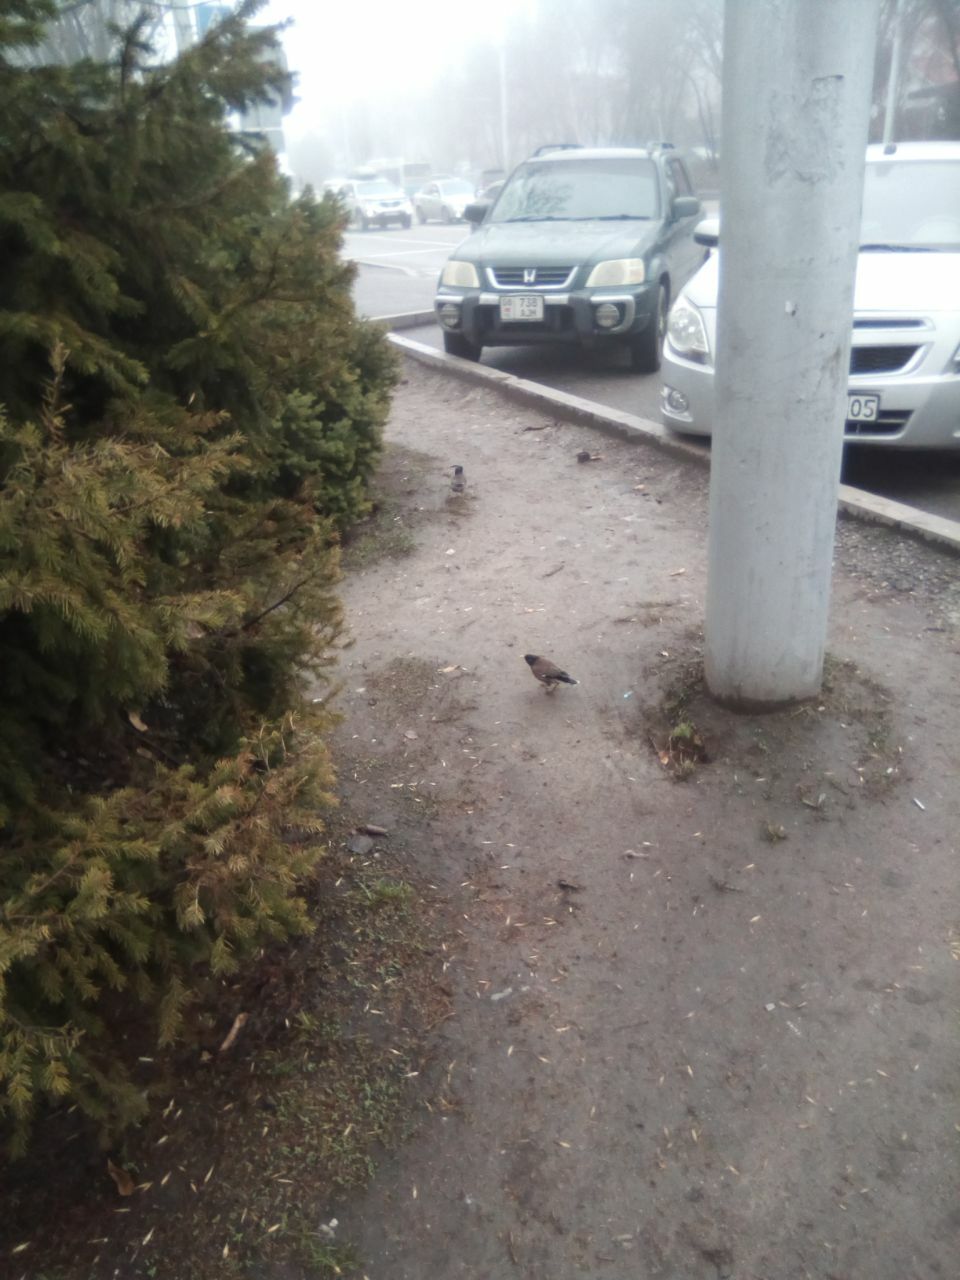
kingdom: Animalia
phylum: Chordata
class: Aves
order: Passeriformes
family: Sturnidae
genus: Acridotheres
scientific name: Acridotheres tristis
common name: Common myna
